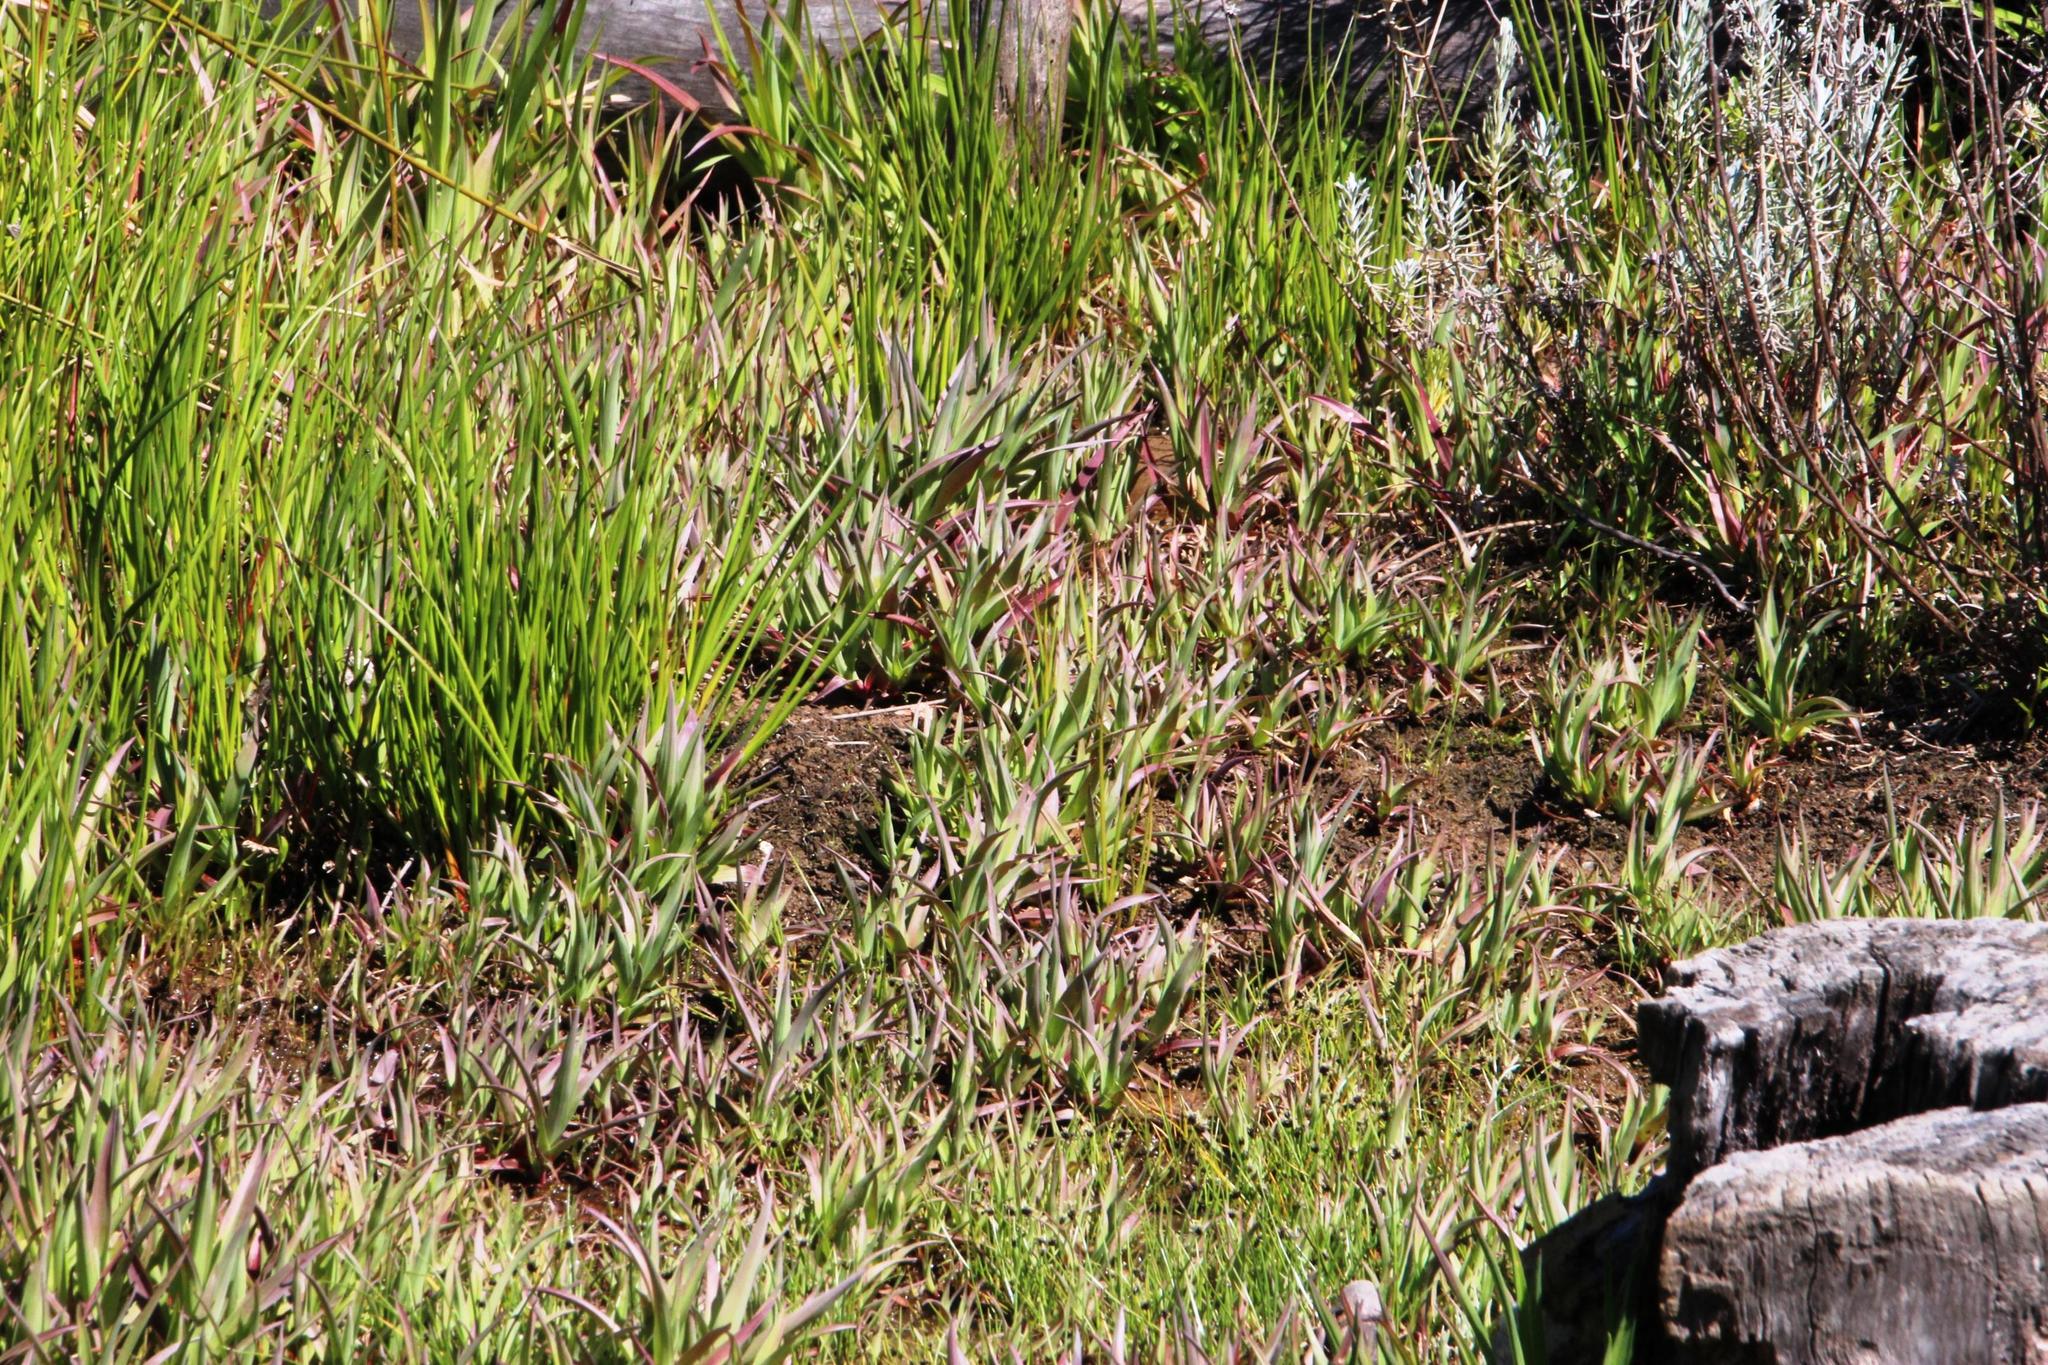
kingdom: Plantae
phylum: Tracheophyta
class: Liliopsida
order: Poales
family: Juncaceae
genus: Juncus
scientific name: Juncus lomatophyllus
